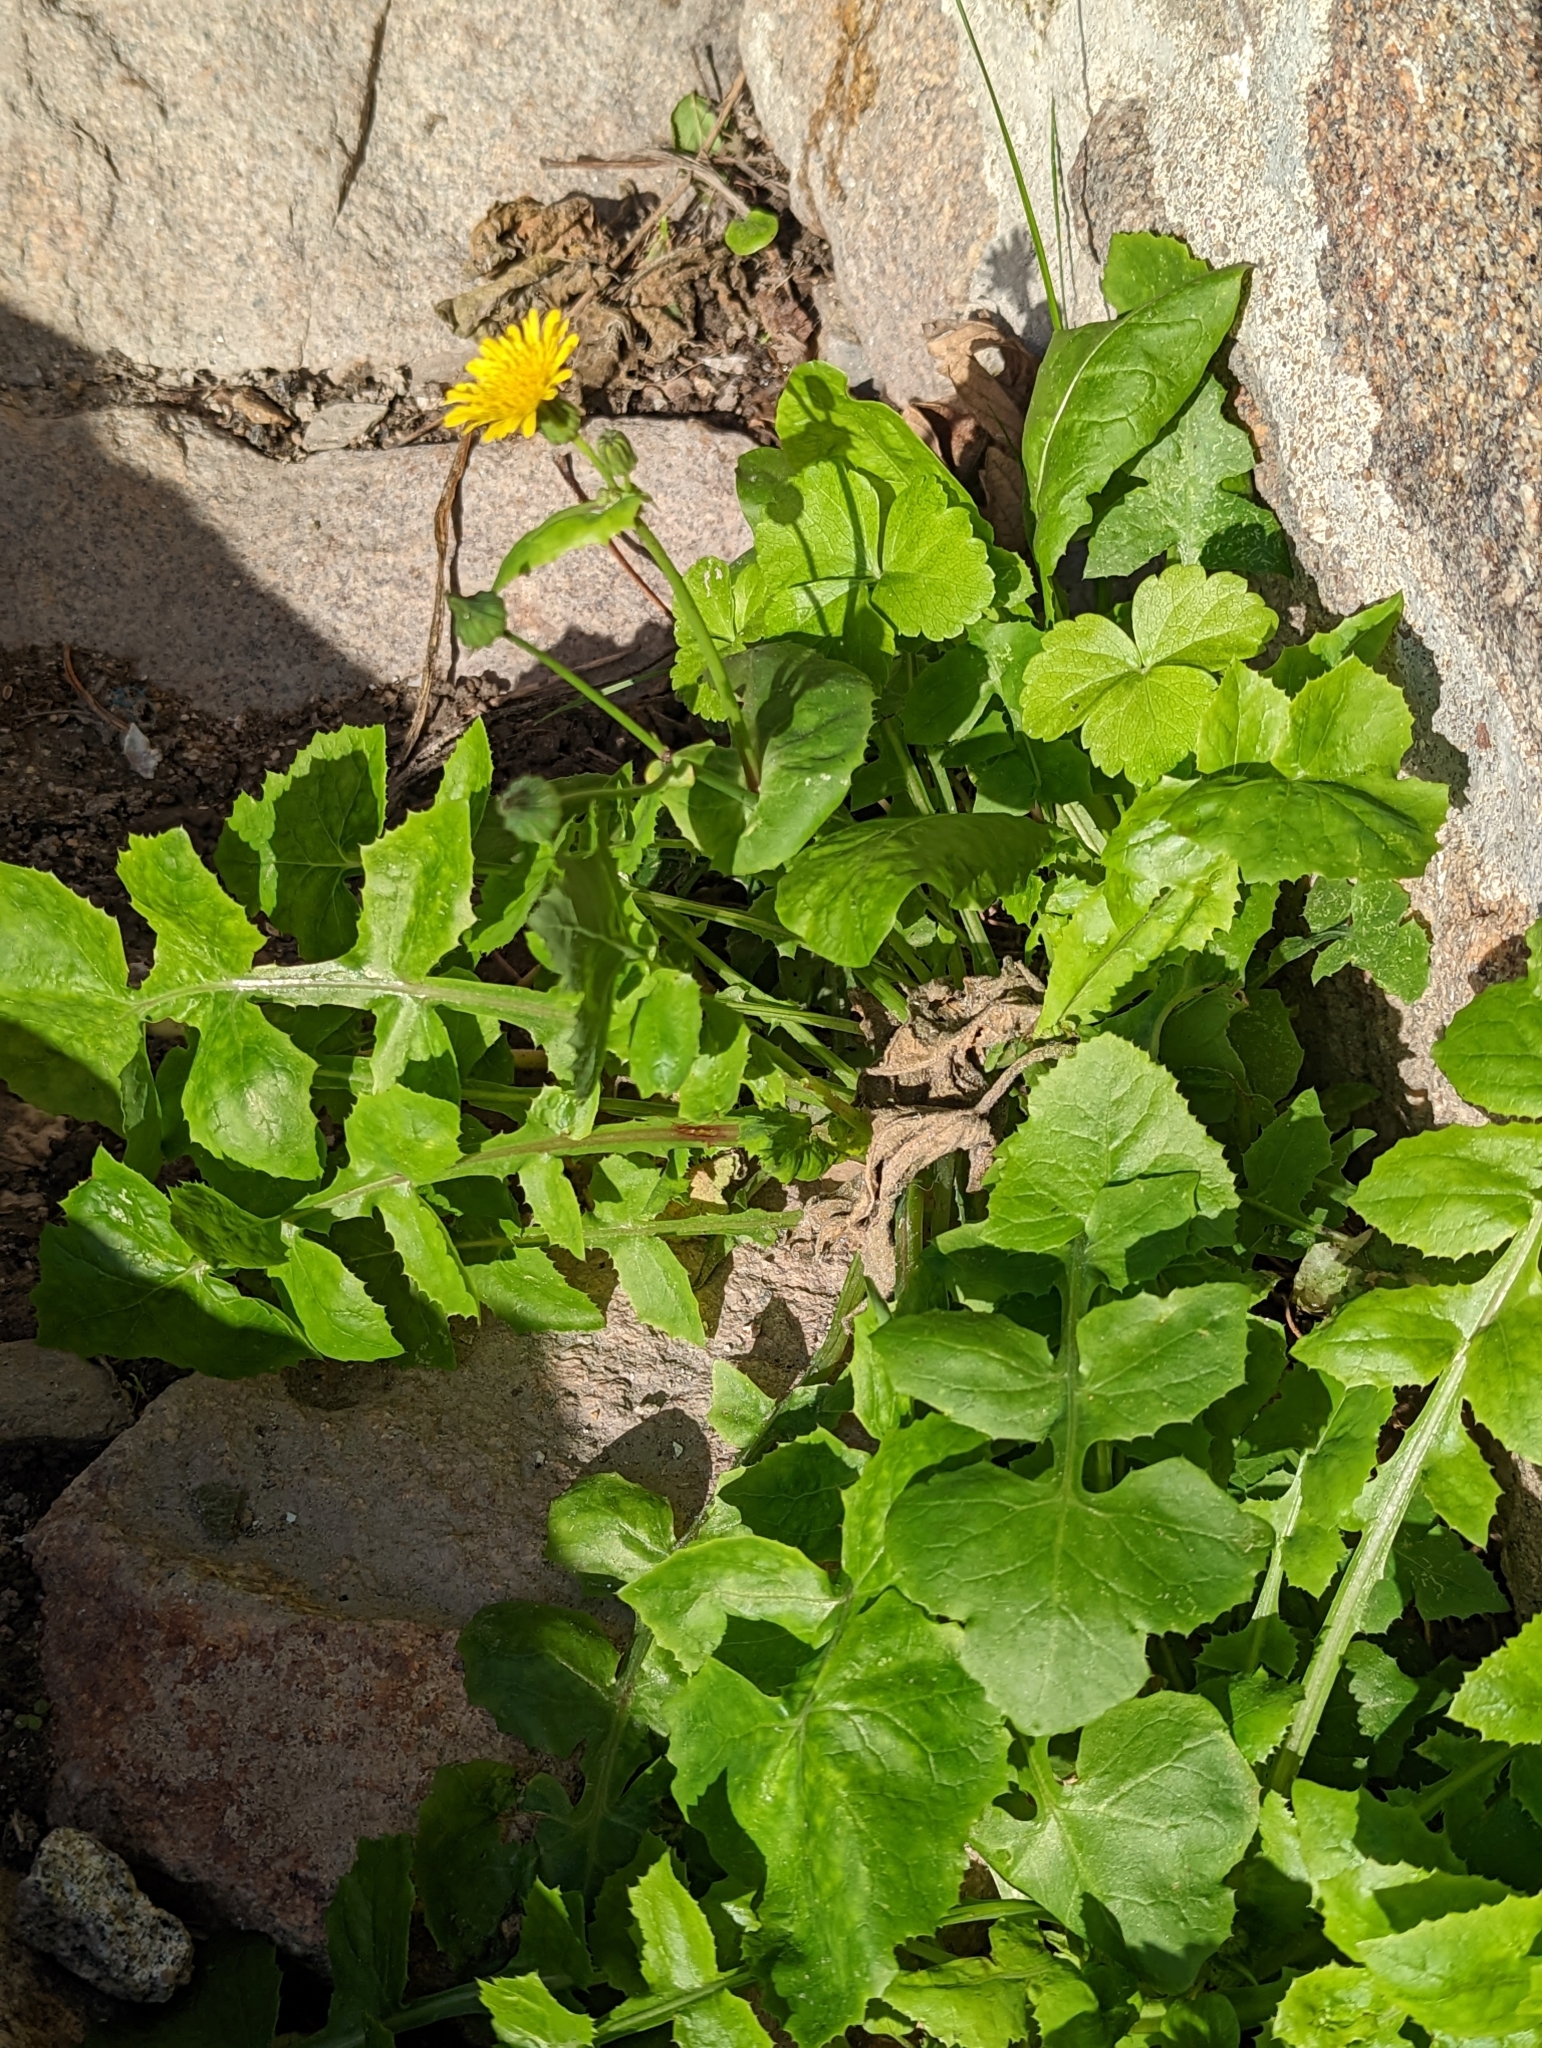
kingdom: Plantae
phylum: Tracheophyta
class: Magnoliopsida
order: Asterales
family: Asteraceae
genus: Sonchus
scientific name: Sonchus oleraceus
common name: Common sowthistle
